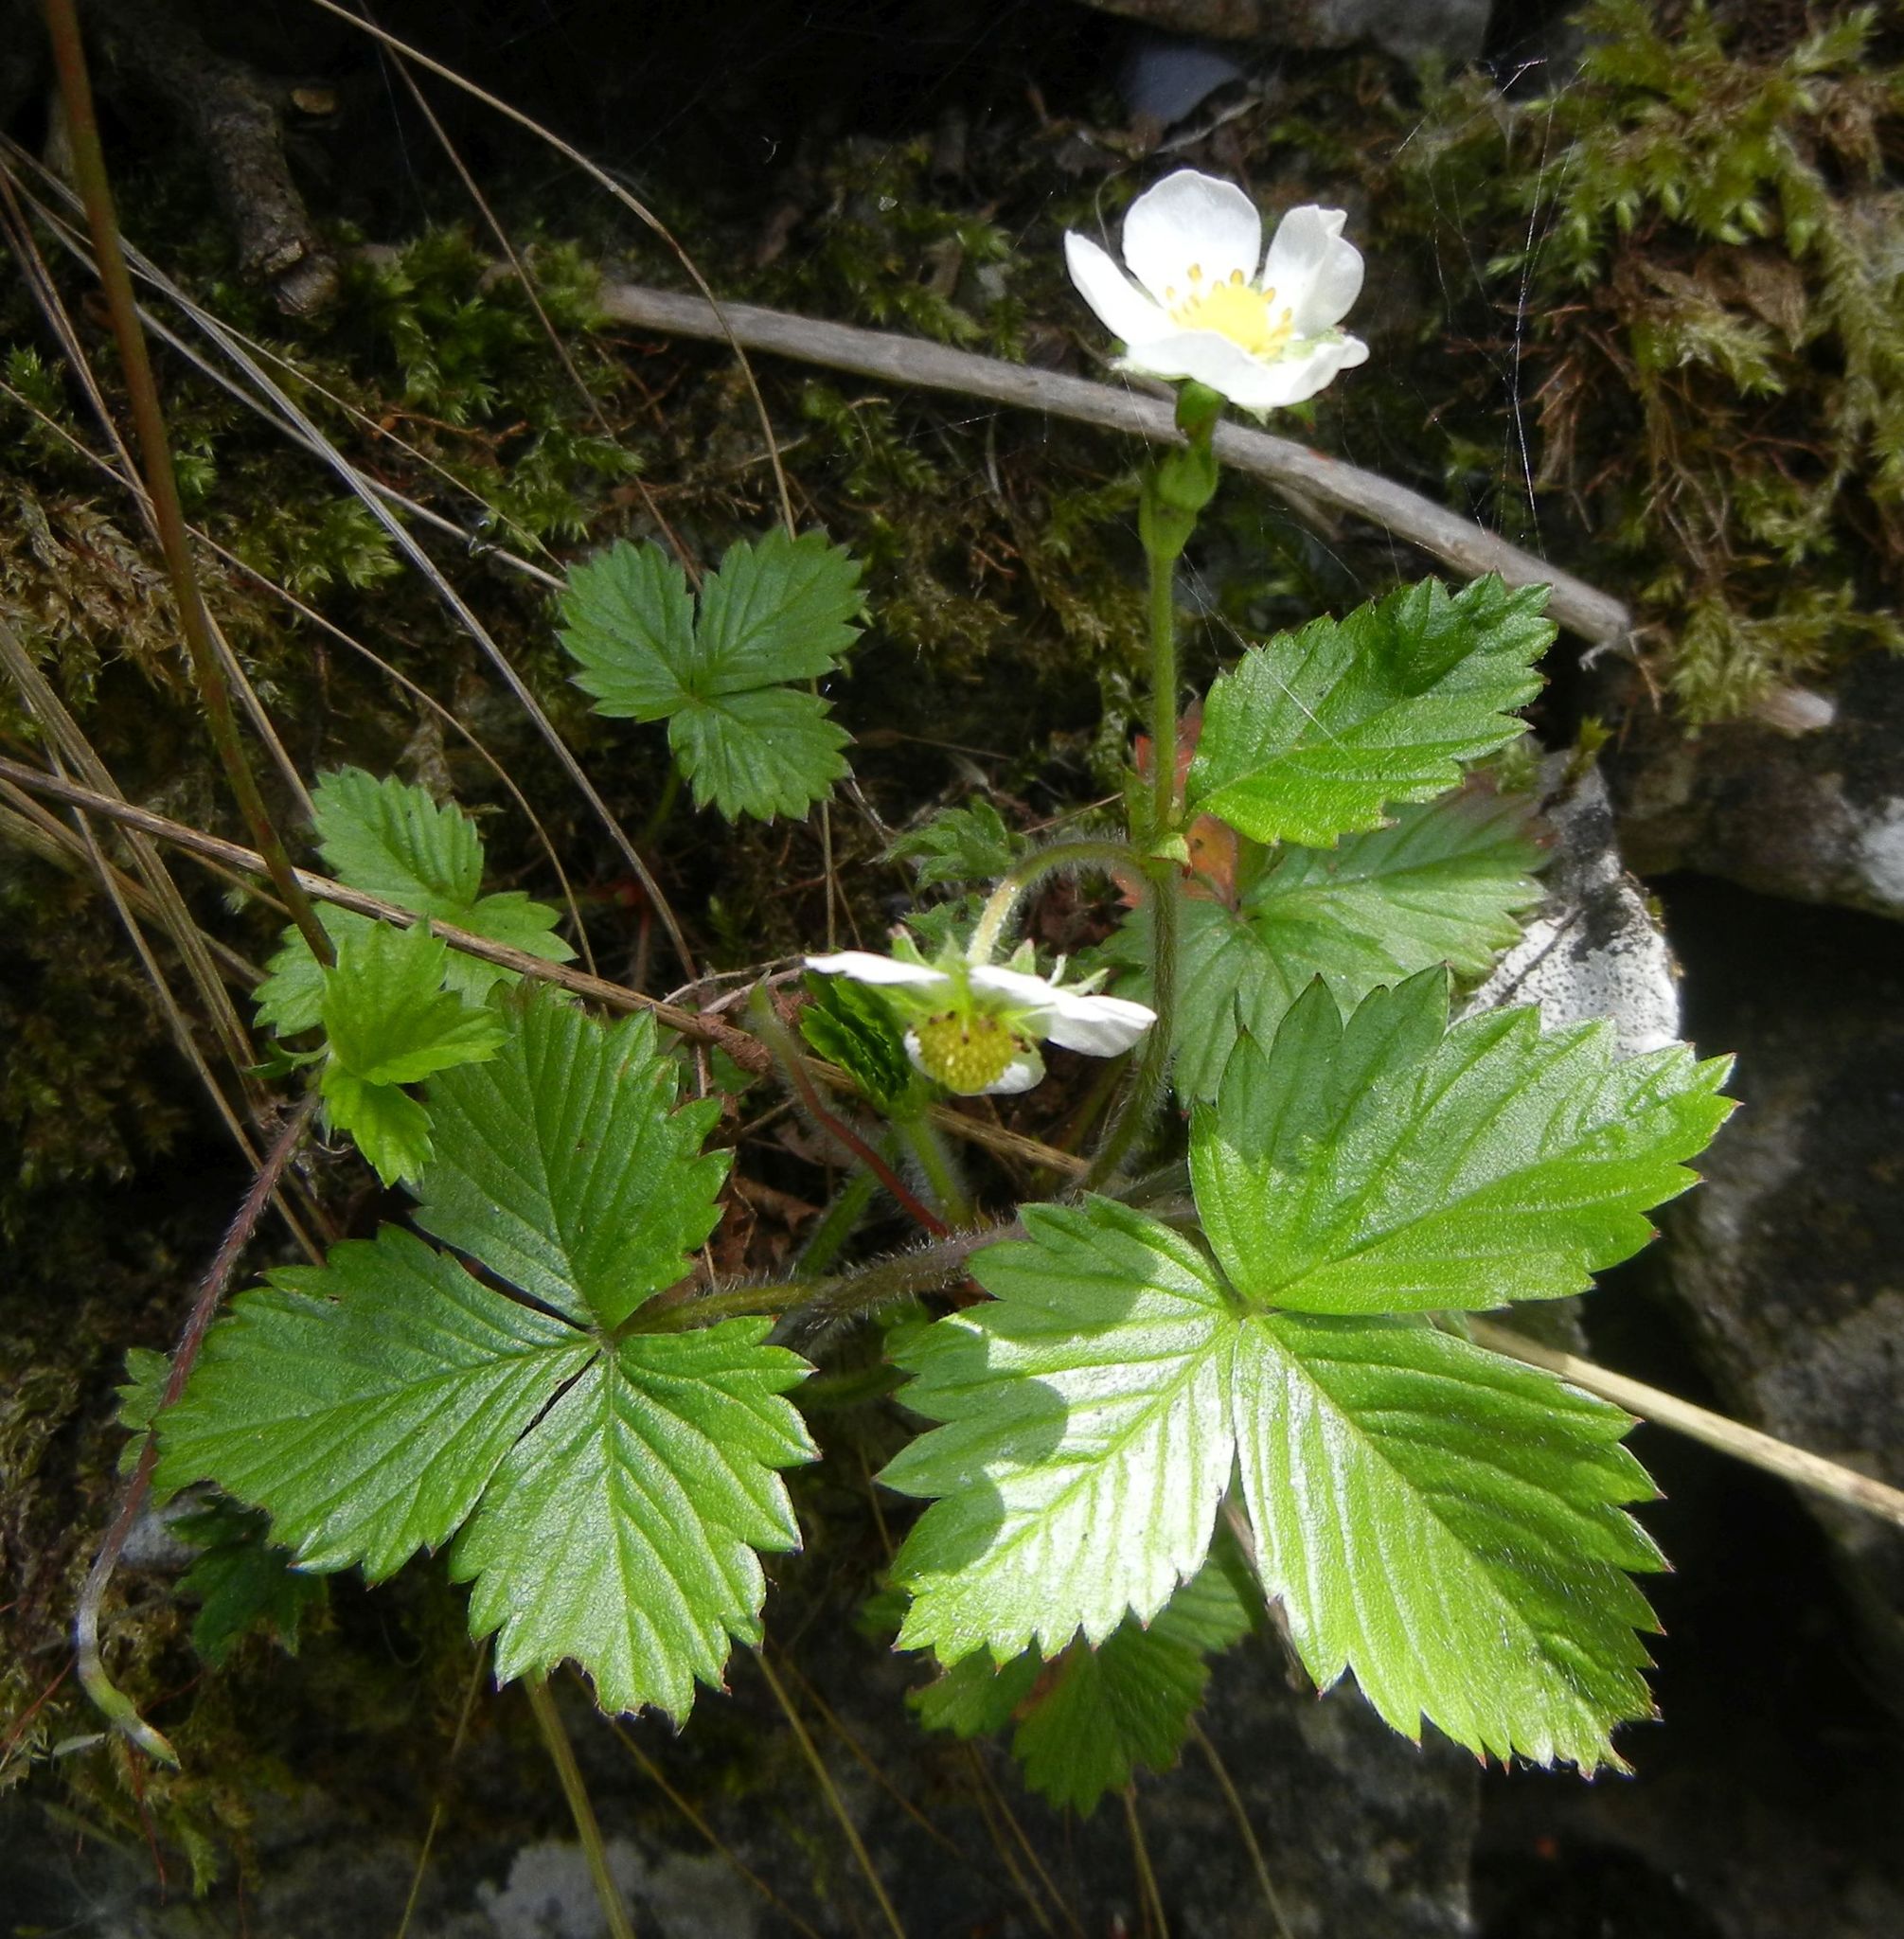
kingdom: Plantae
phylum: Tracheophyta
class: Magnoliopsida
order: Rosales
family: Rosaceae
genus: Fragaria
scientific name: Fragaria vesca
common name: Wild strawberry
